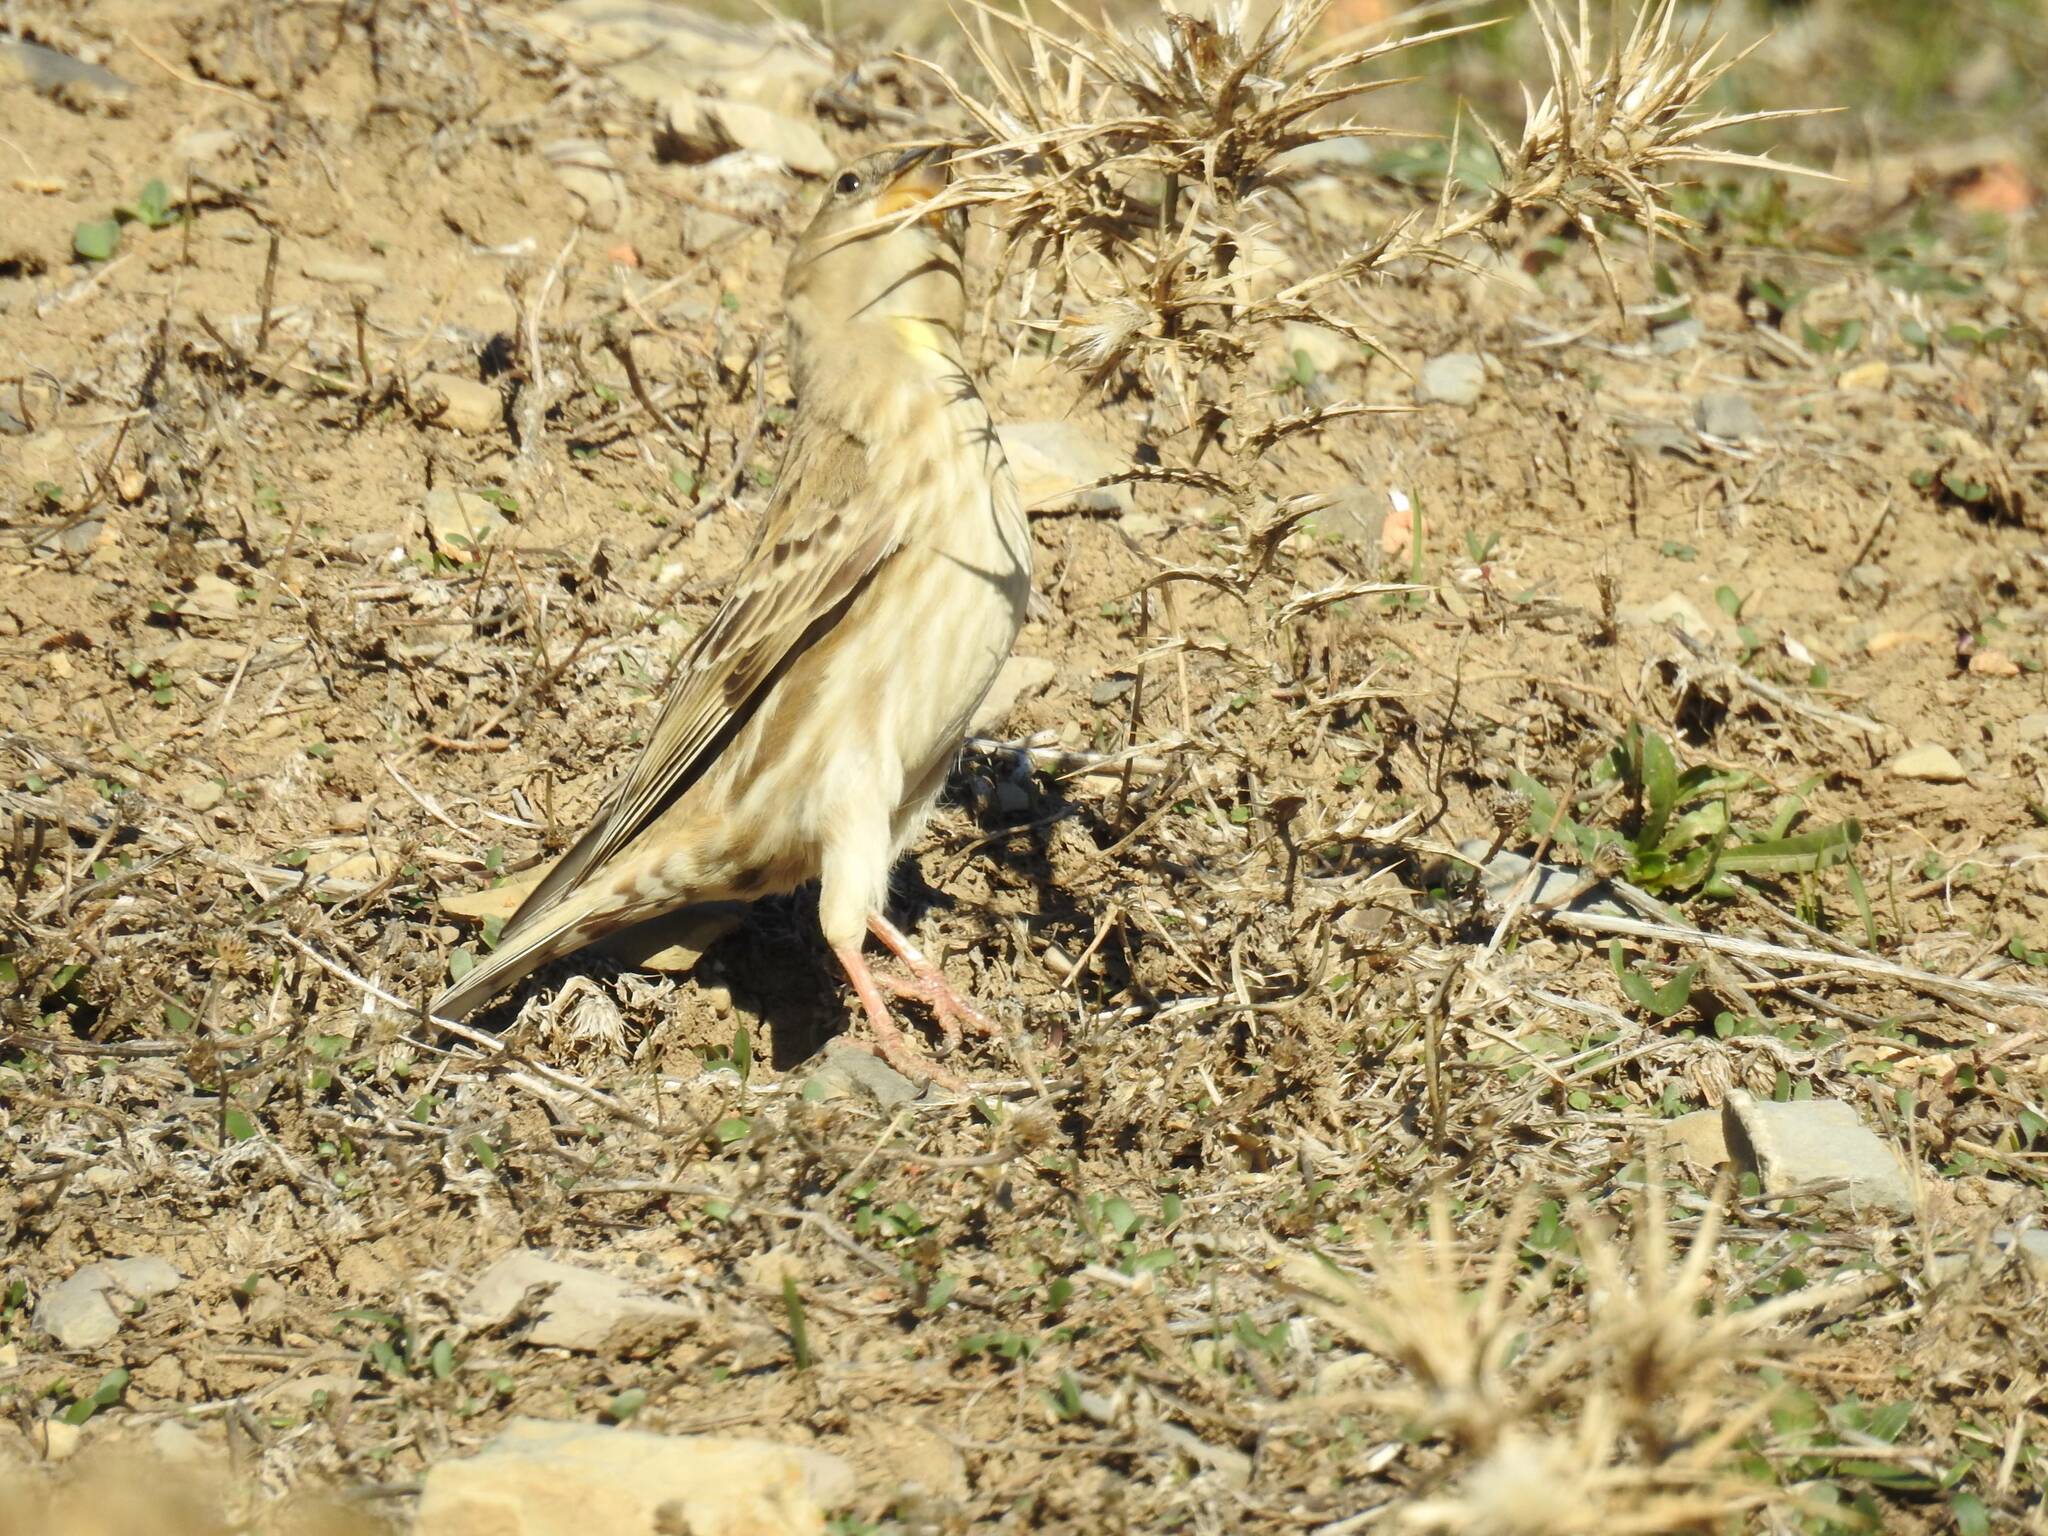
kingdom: Animalia
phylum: Chordata
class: Aves
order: Passeriformes
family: Passeridae
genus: Petronia
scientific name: Petronia petronia
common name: Rock sparrow
